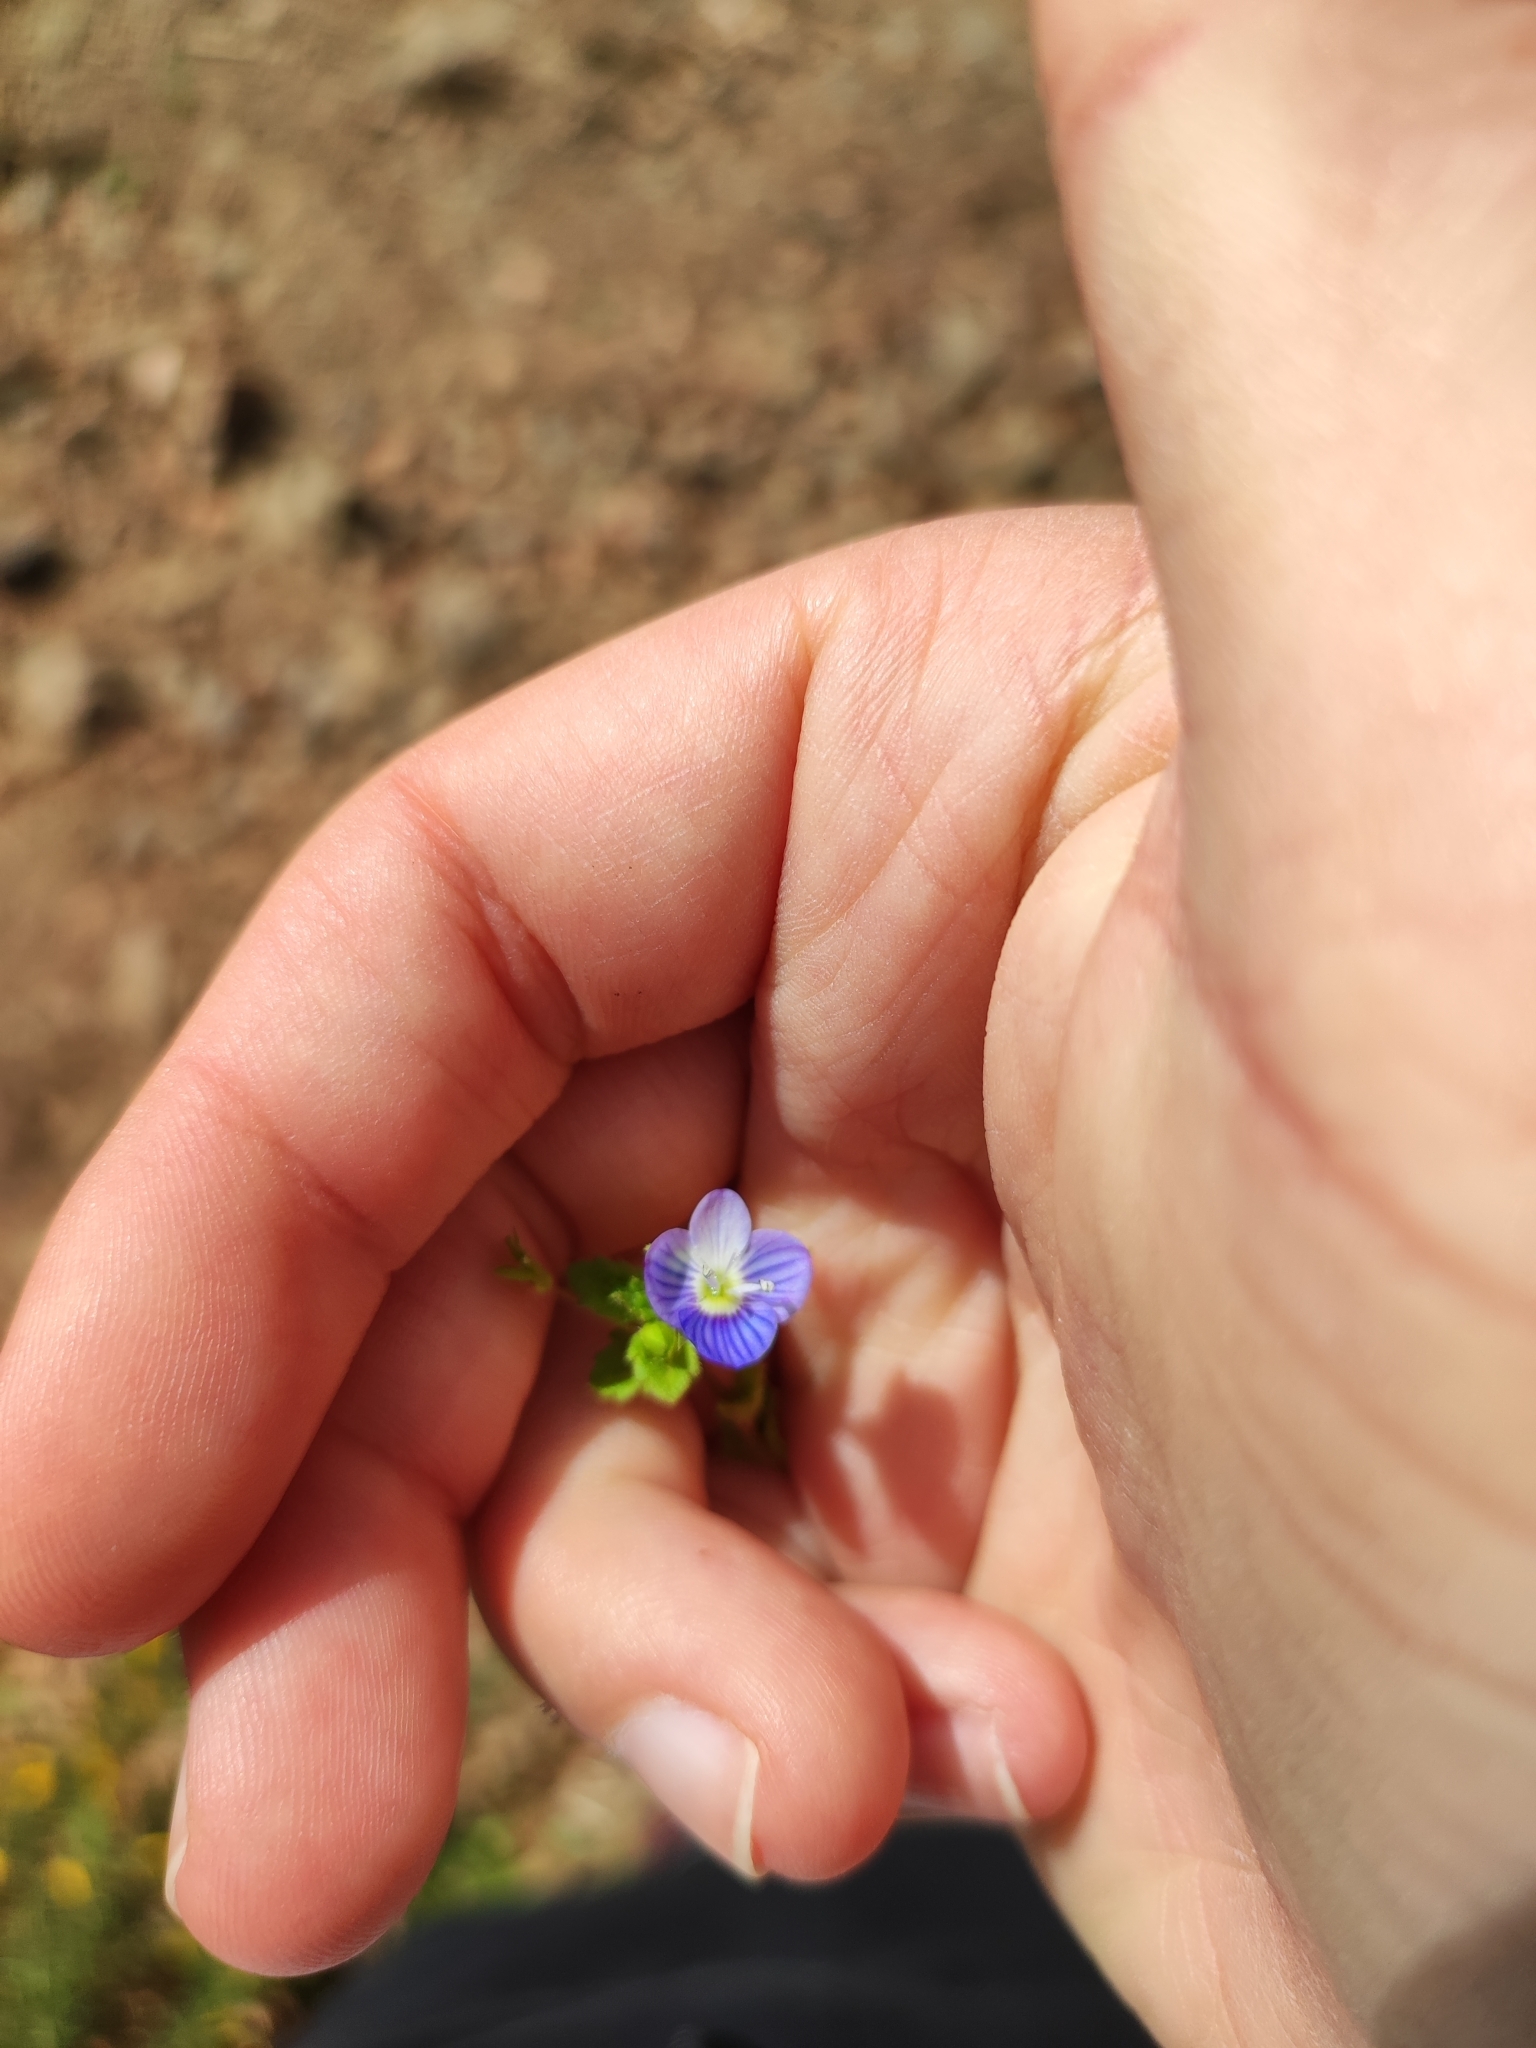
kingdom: Plantae
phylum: Tracheophyta
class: Magnoliopsida
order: Lamiales
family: Plantaginaceae
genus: Veronica
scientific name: Veronica persica
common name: Common field-speedwell
